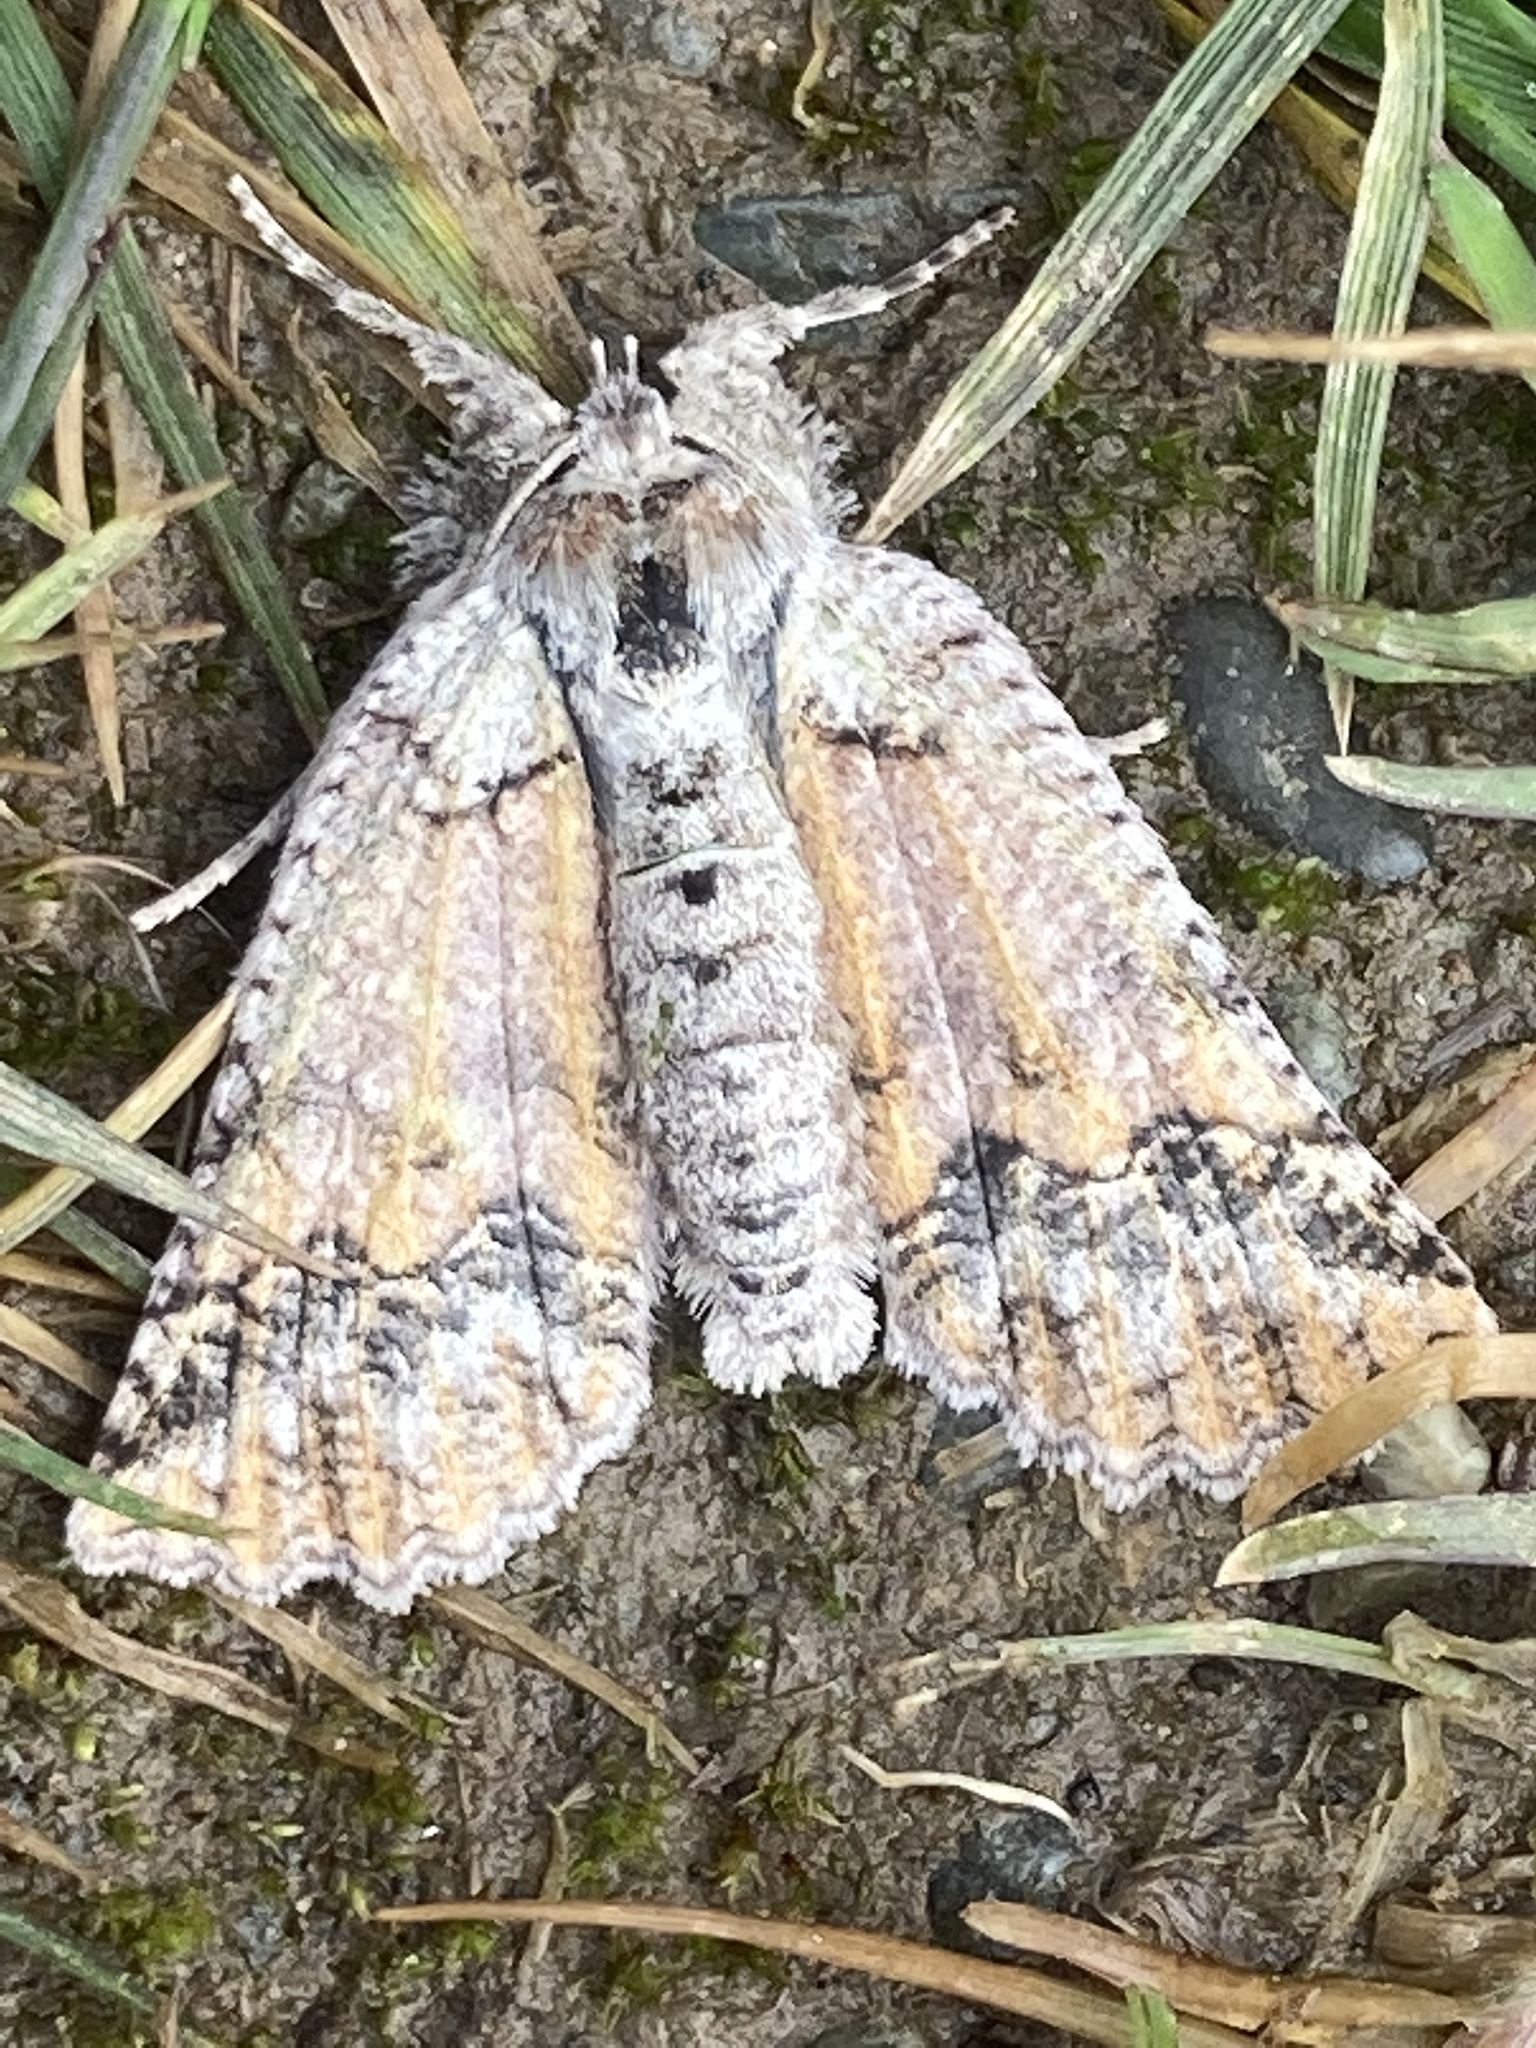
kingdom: Animalia
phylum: Arthropoda
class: Insecta
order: Lepidoptera
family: Geometridae
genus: Declana
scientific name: Declana floccosa
